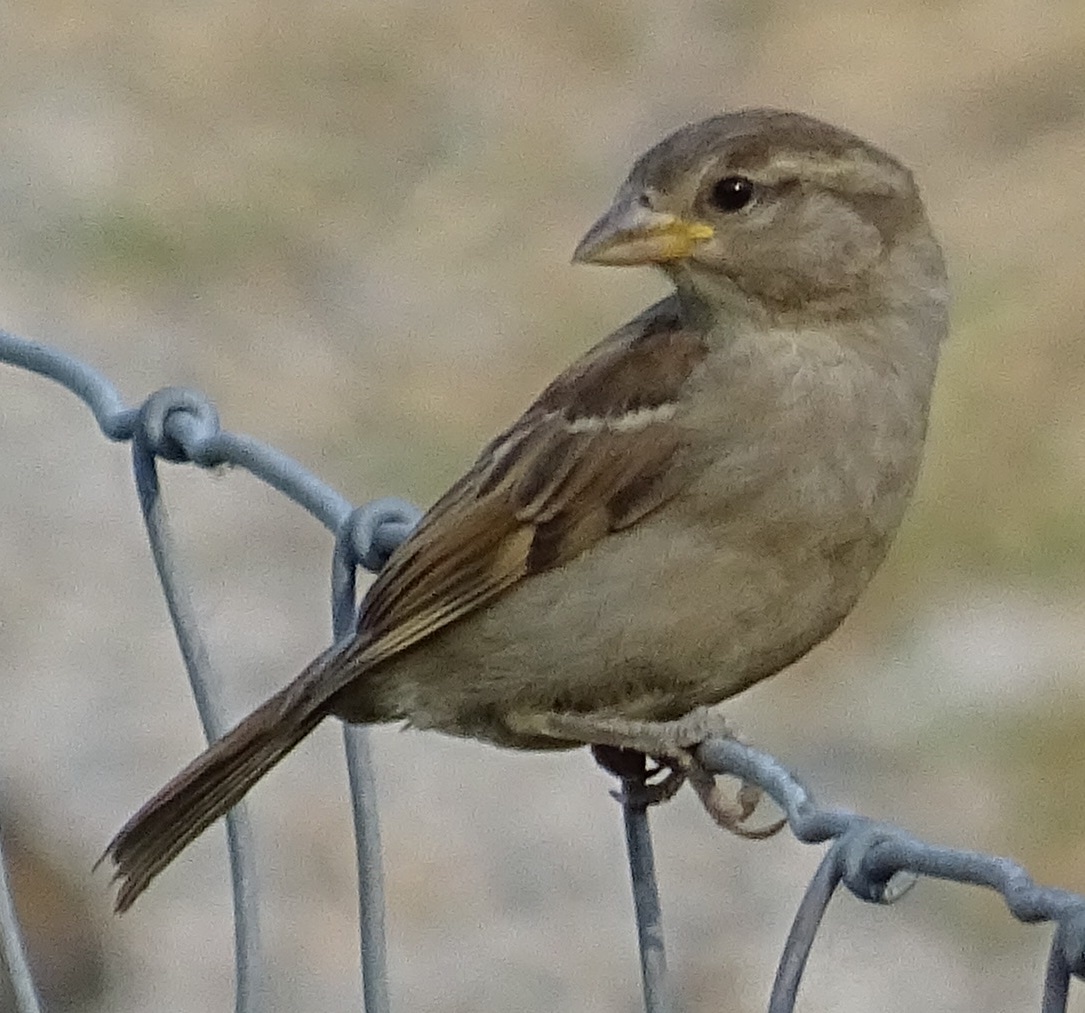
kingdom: Animalia
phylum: Chordata
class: Aves
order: Passeriformes
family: Passeridae
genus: Passer
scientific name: Passer domesticus
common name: House sparrow
